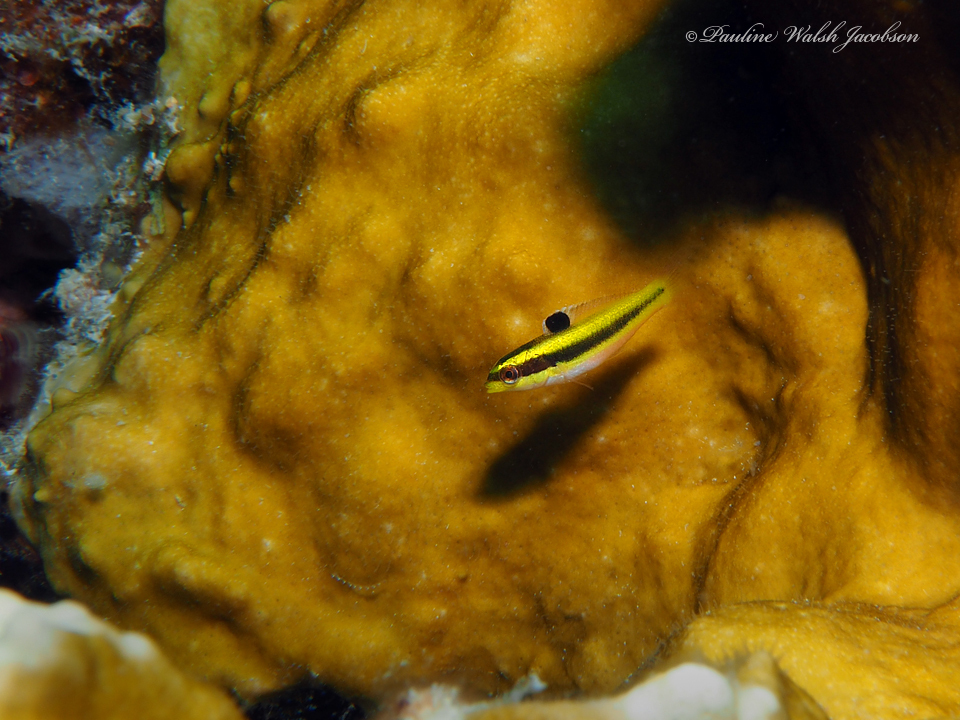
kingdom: Animalia
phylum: Chordata
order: Perciformes
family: Labridae
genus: Thalassoma
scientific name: Thalassoma bifasciatum
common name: Bluehead wrasse
